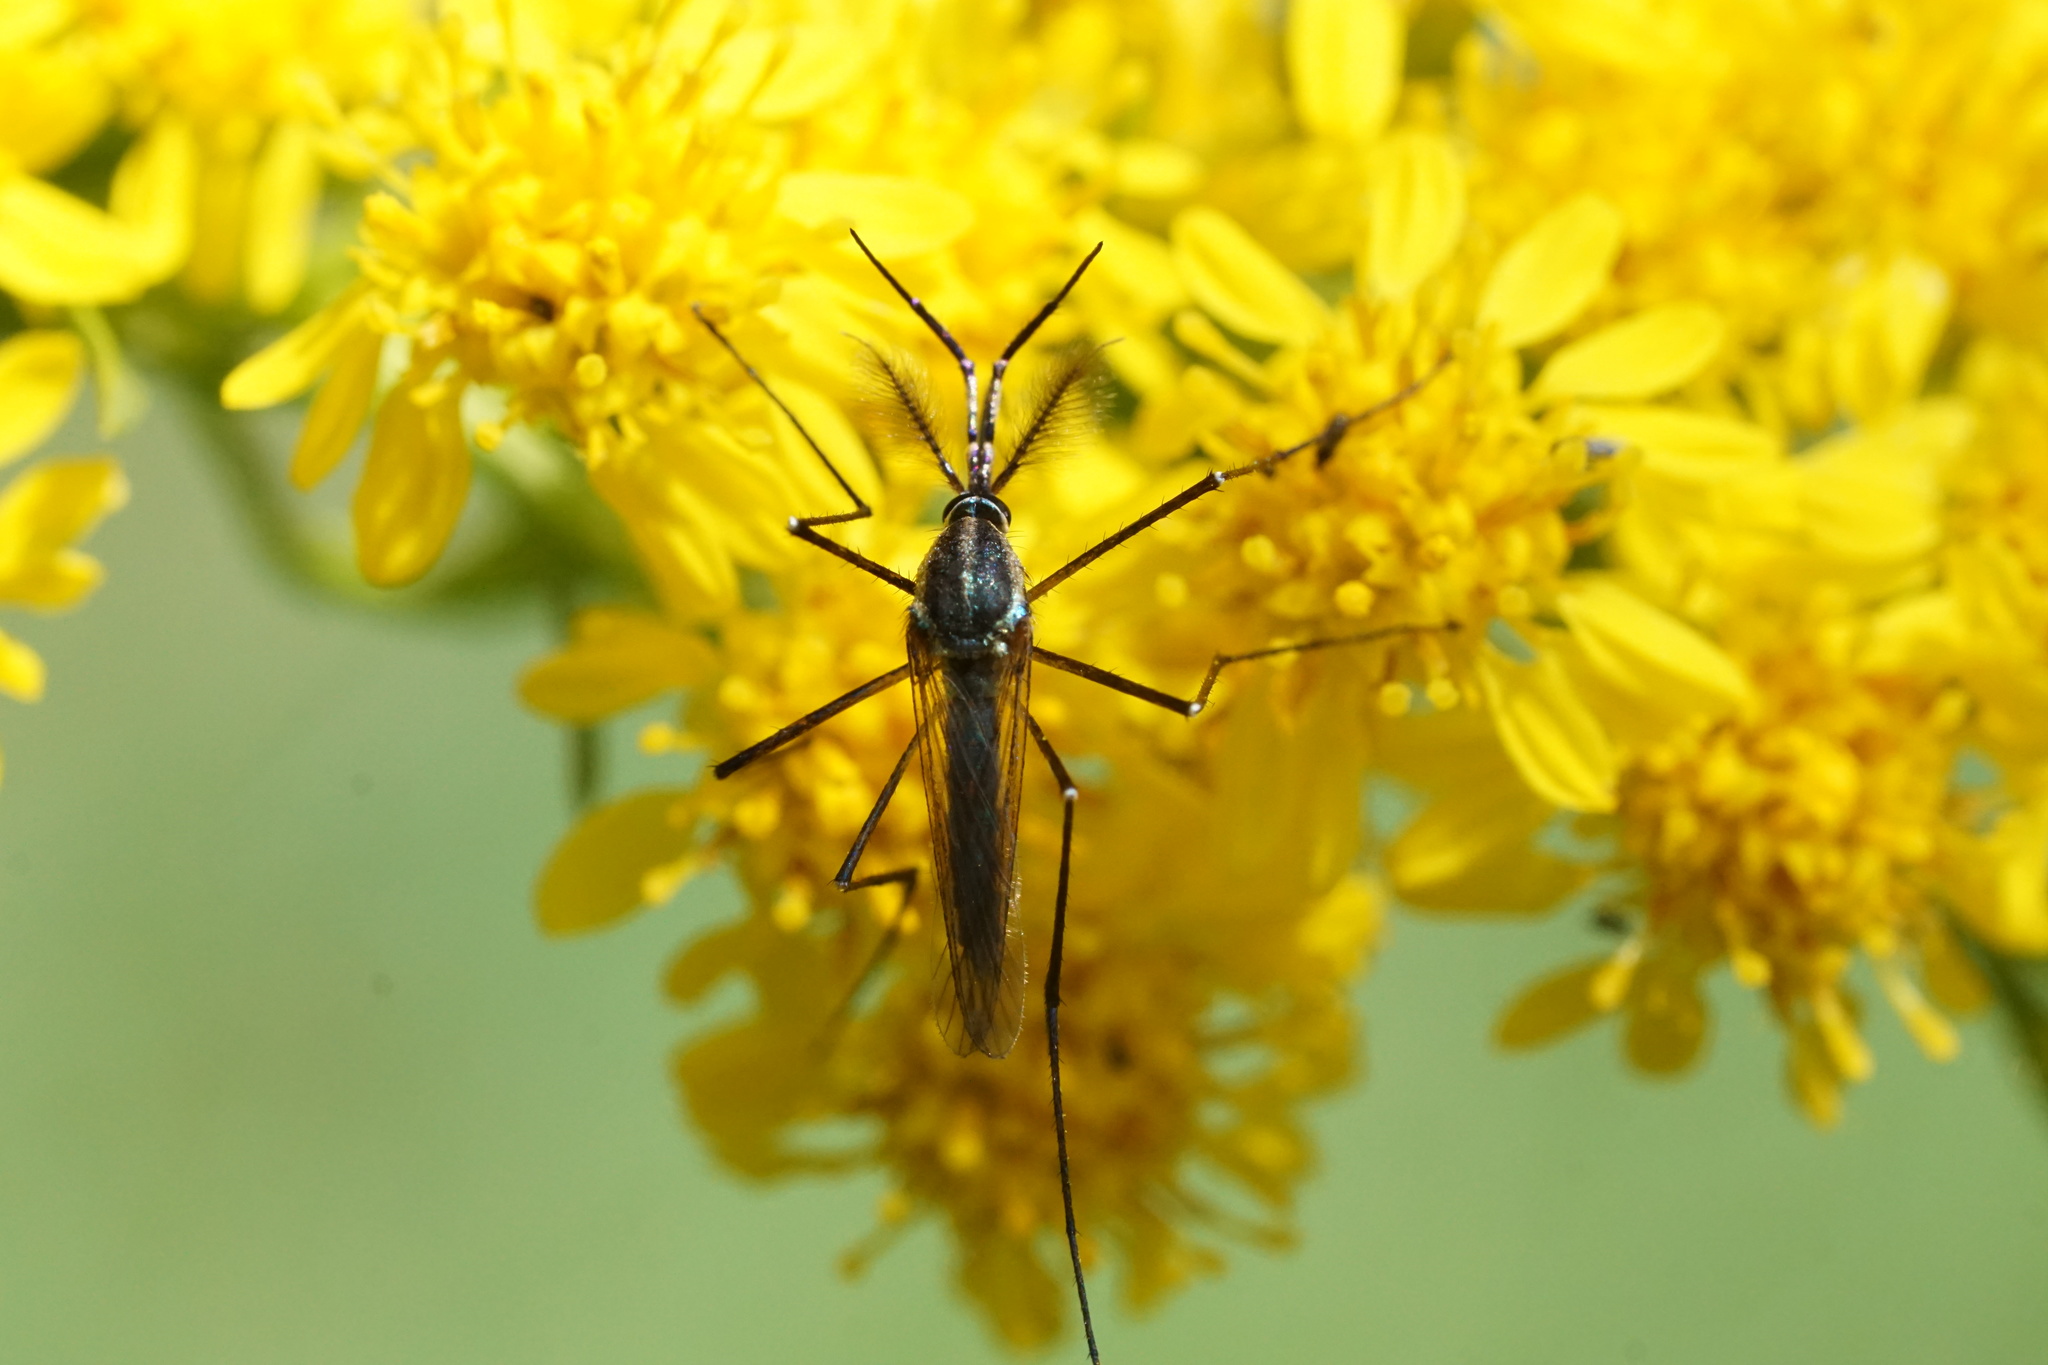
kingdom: Animalia
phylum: Arthropoda
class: Insecta
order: Diptera
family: Culicidae
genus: Toxorhynchites
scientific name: Toxorhynchites rutilus
